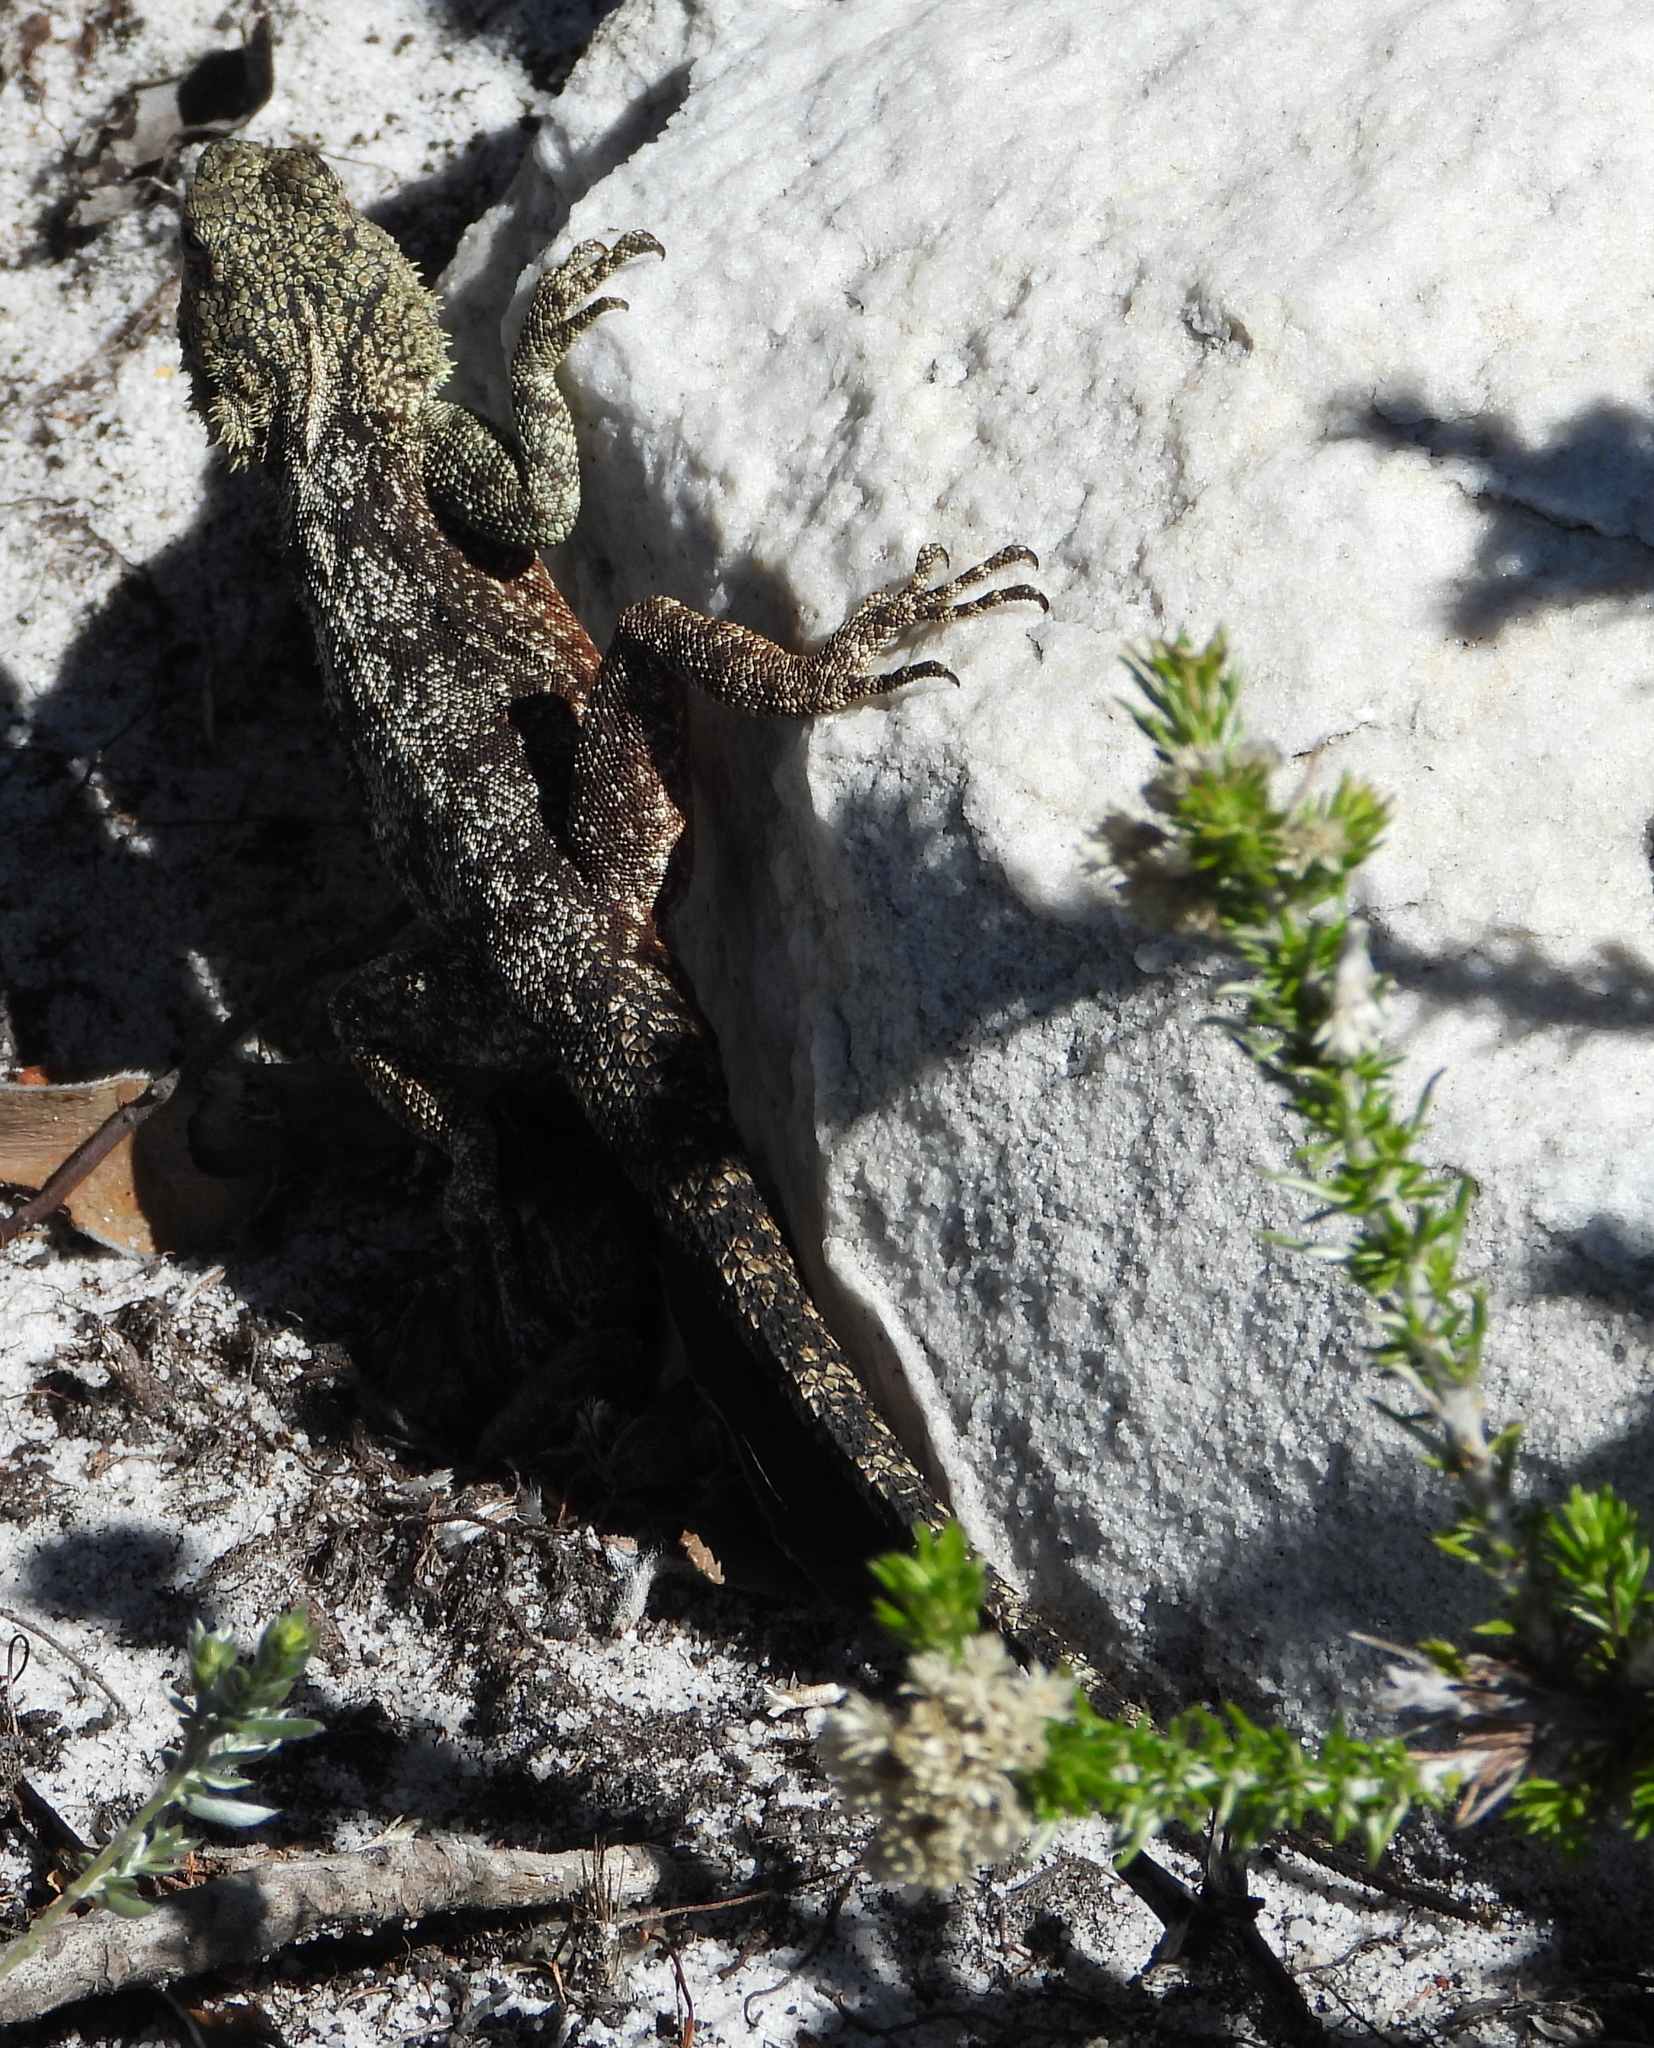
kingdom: Animalia
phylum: Chordata
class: Squamata
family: Agamidae
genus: Agama
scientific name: Agama atra
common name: Southern african rock agama
